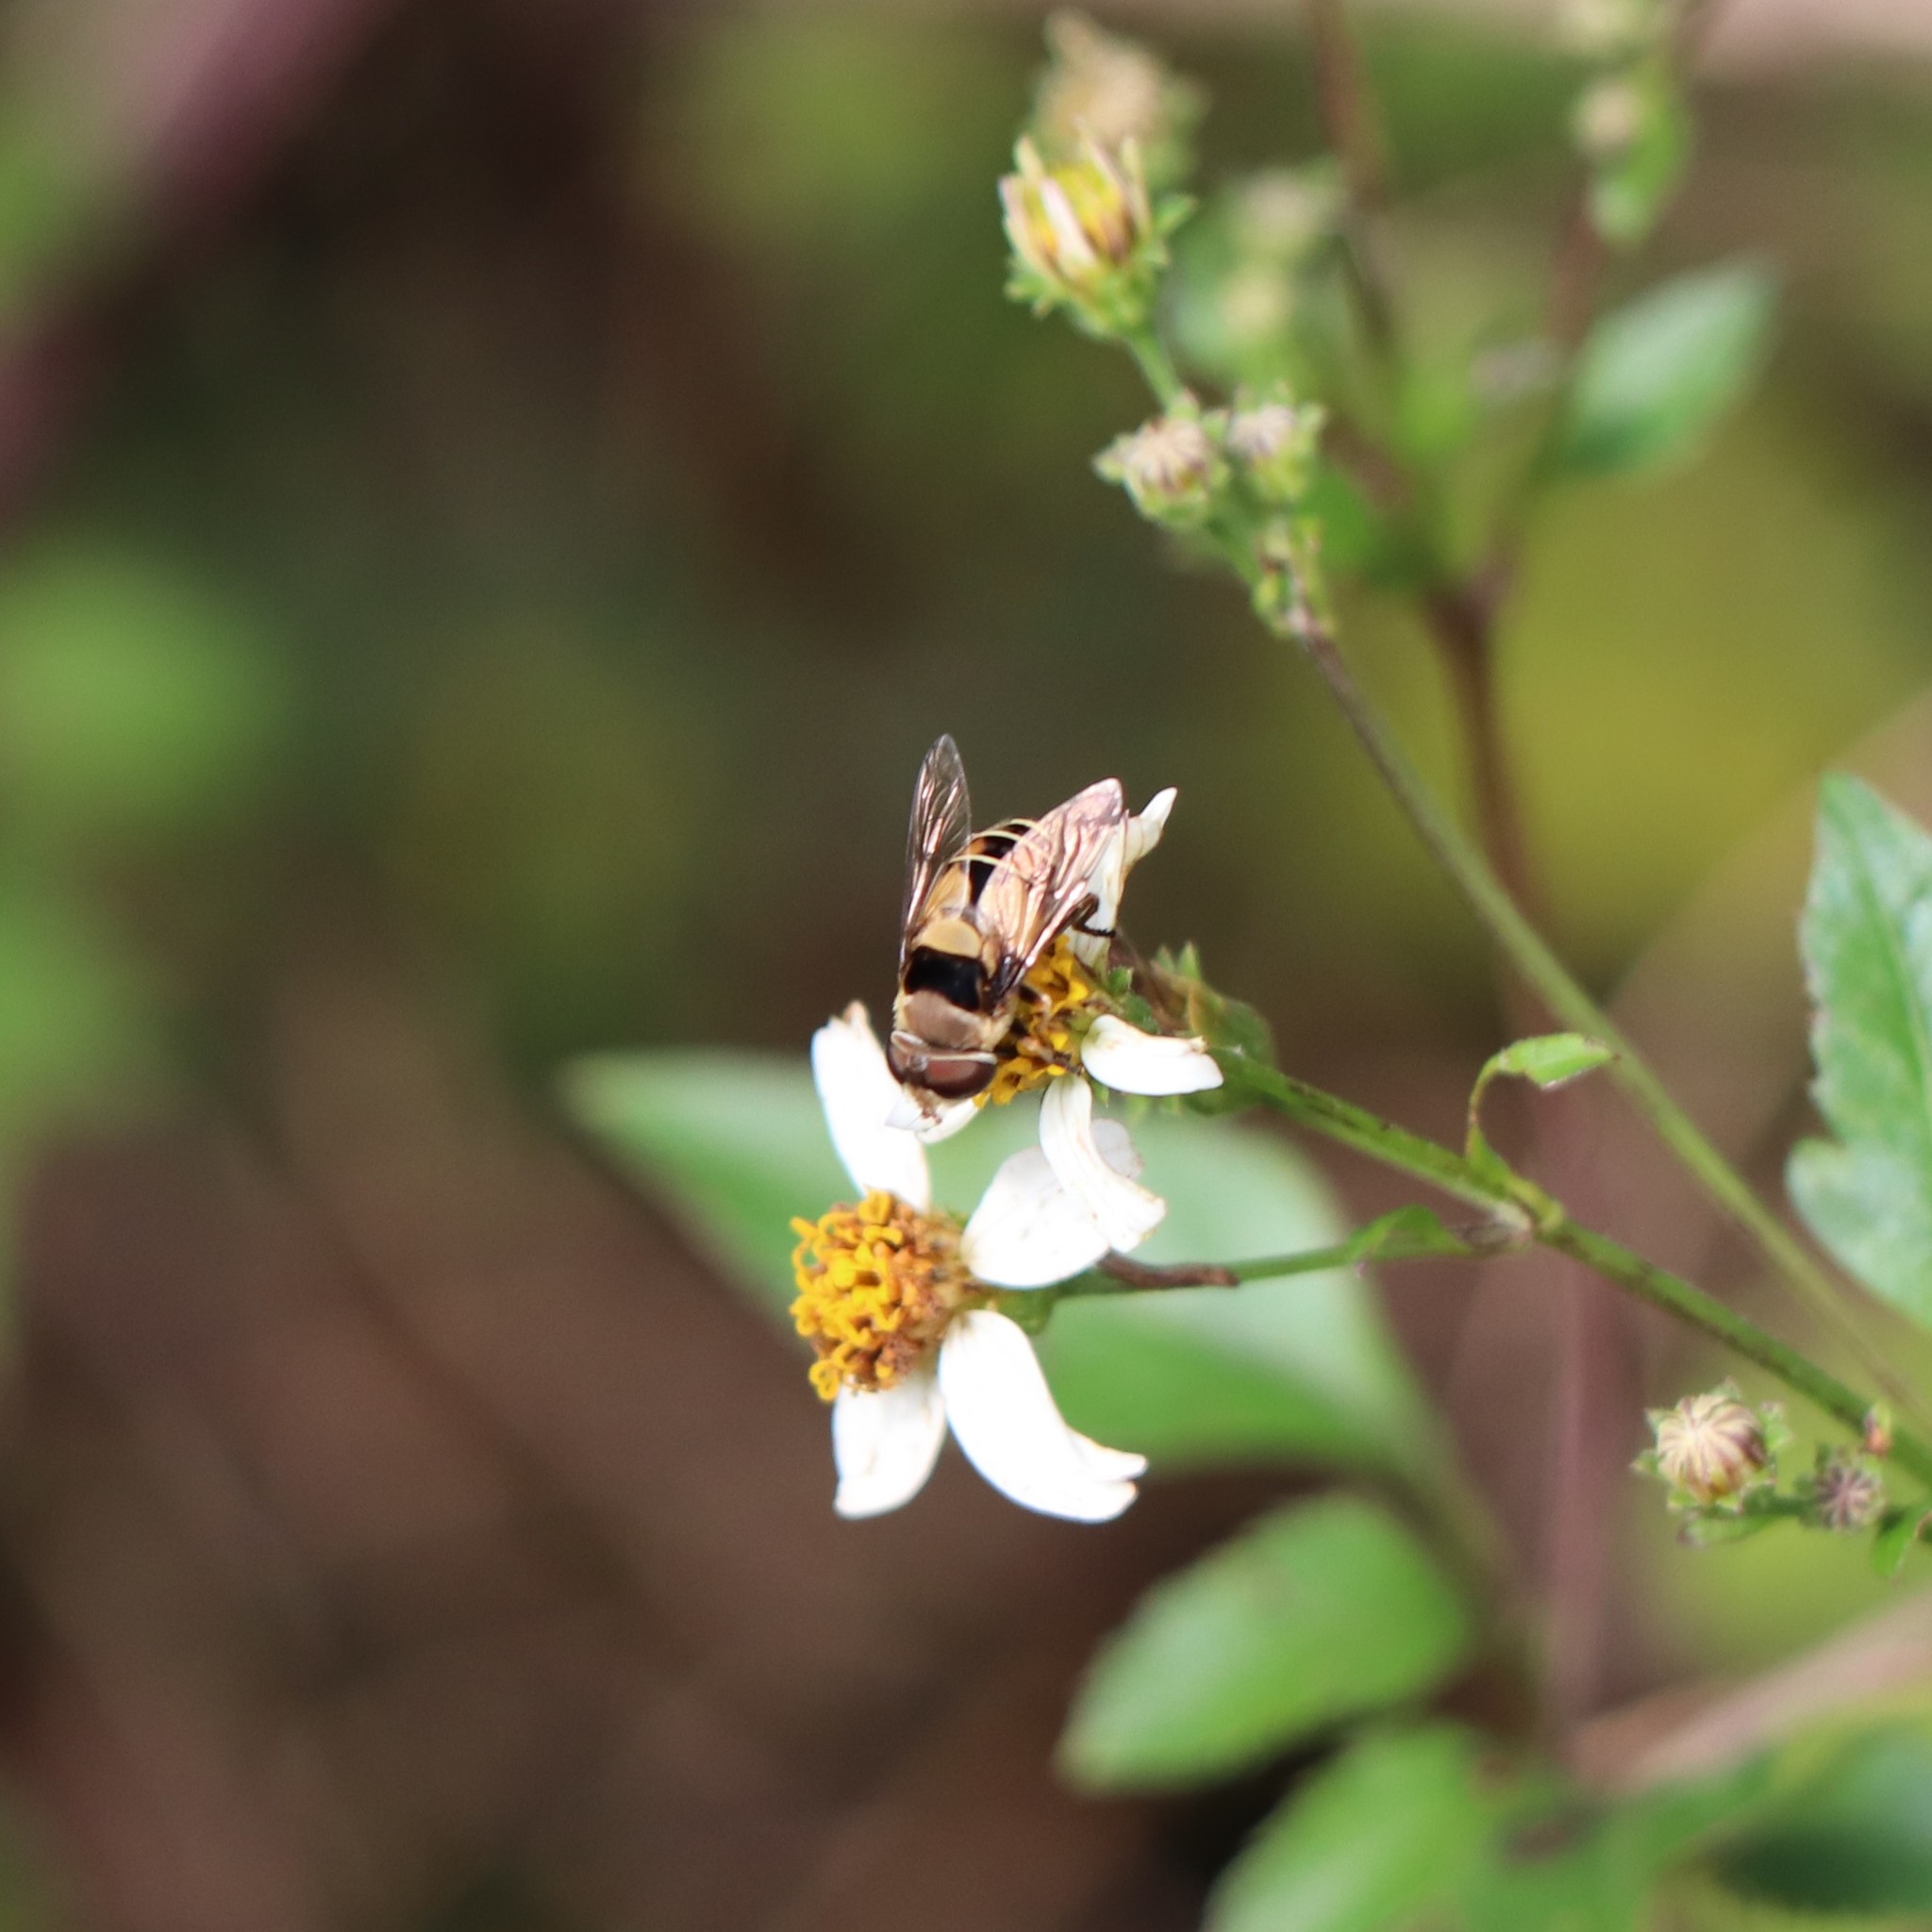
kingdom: Animalia
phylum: Arthropoda
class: Insecta
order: Diptera
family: Syrphidae
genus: Palpada
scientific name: Palpada pusilla
